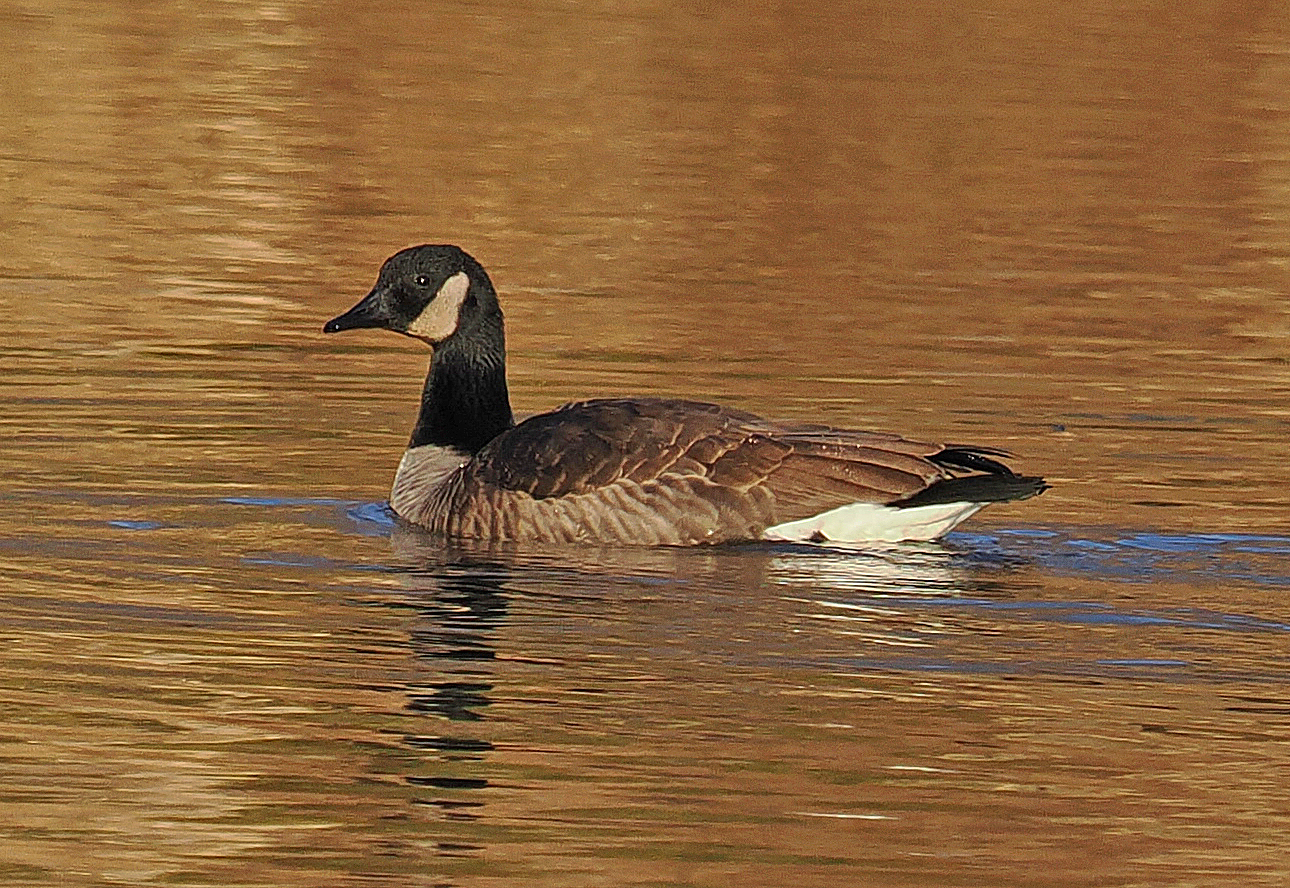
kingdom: Animalia
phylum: Chordata
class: Aves
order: Anseriformes
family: Anatidae
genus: Branta
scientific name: Branta canadensis
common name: Canada goose
